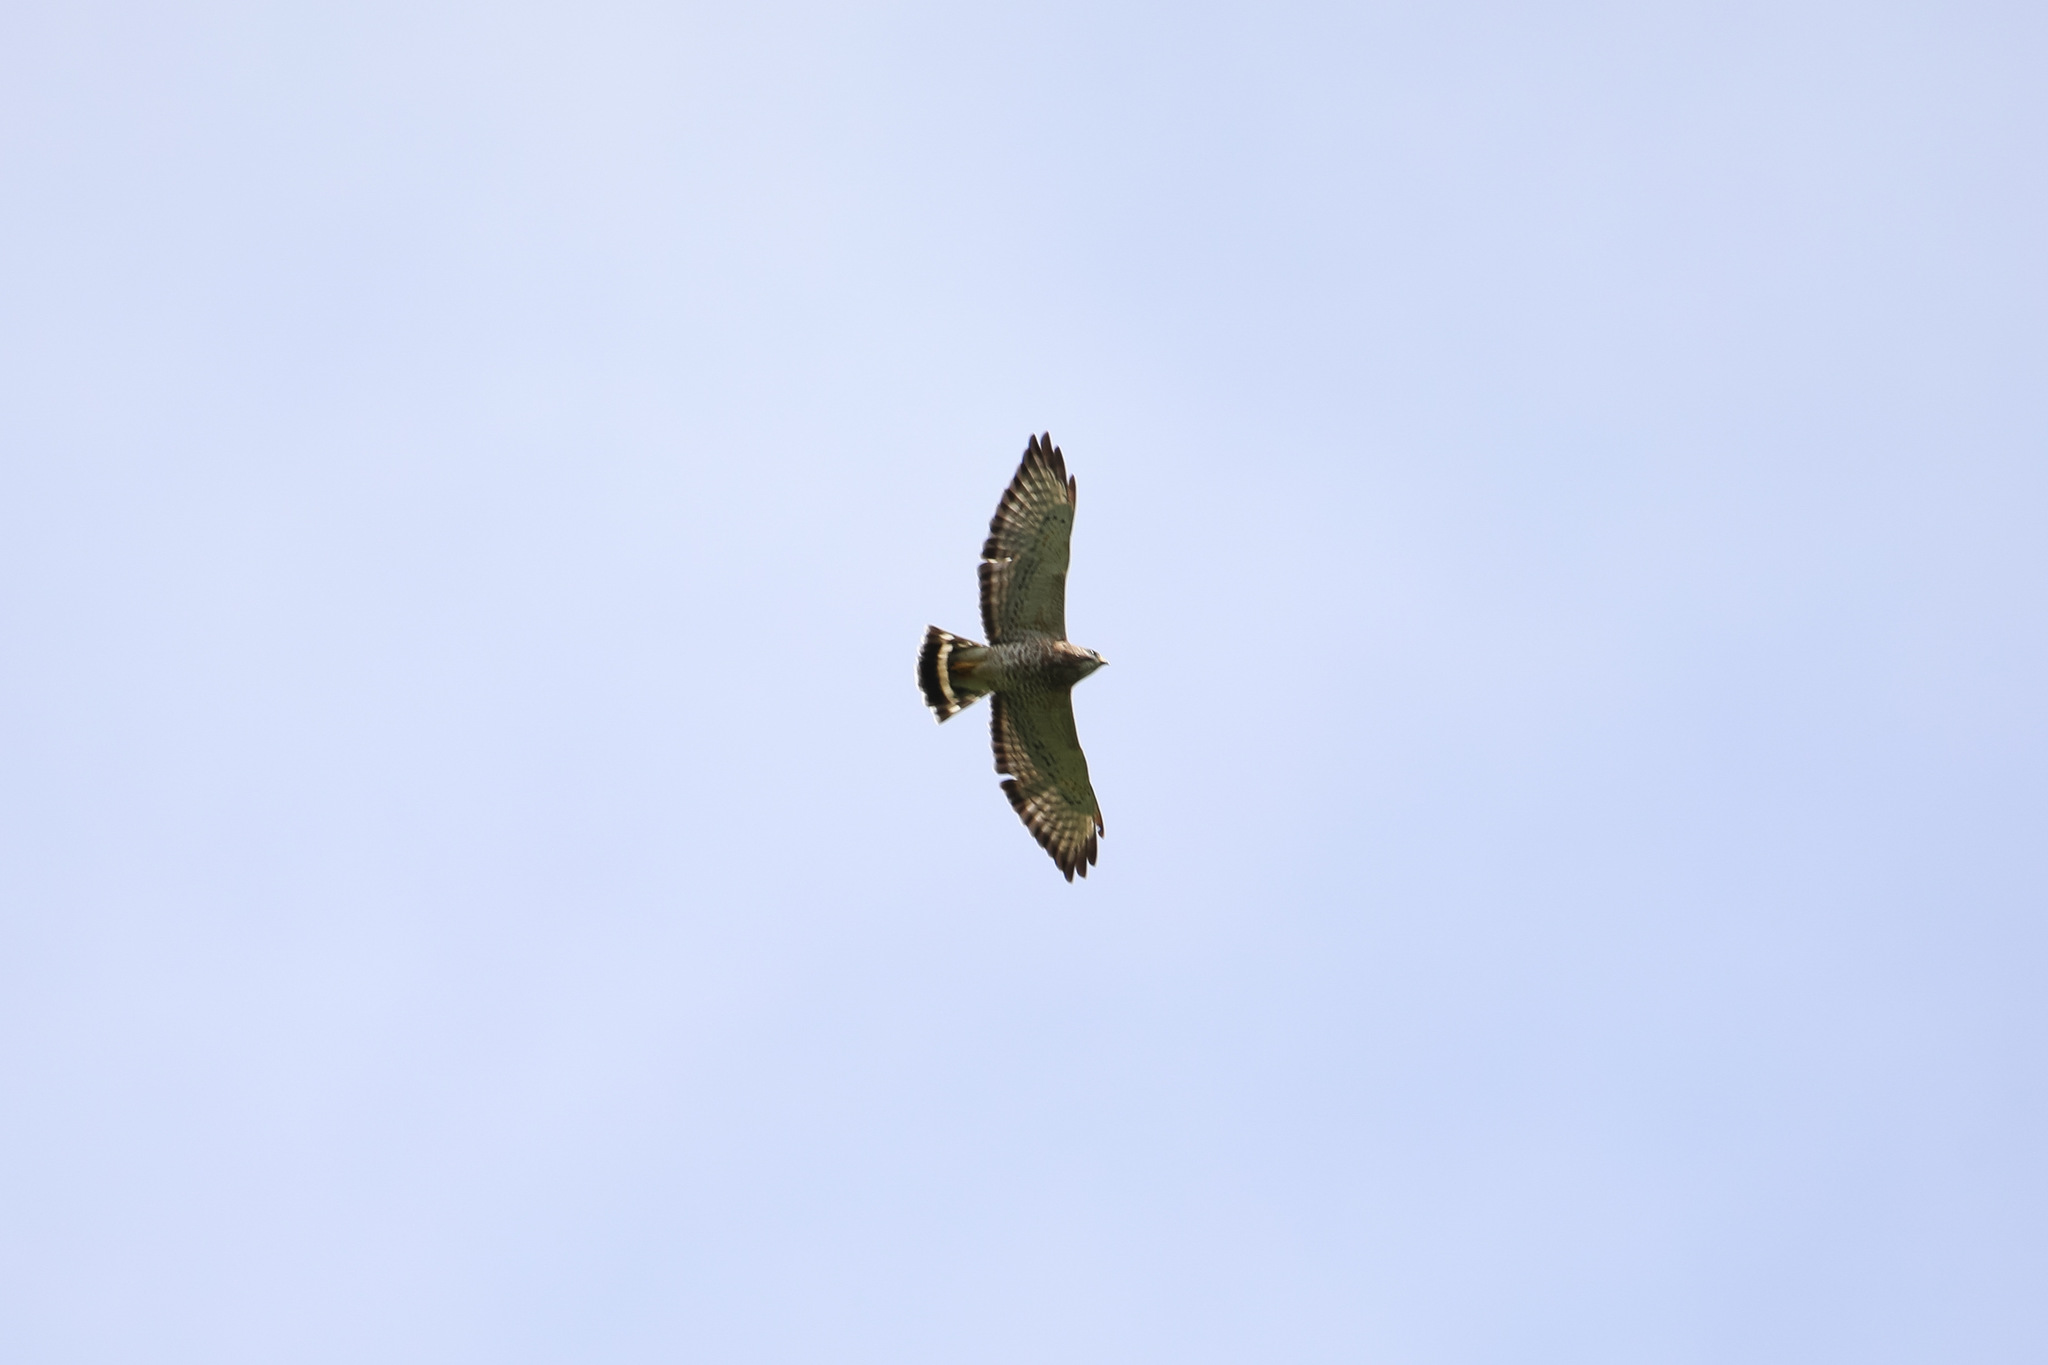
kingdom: Animalia
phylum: Chordata
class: Aves
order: Accipitriformes
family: Accipitridae
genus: Buteo
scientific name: Buteo platypterus
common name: Broad-winged hawk
